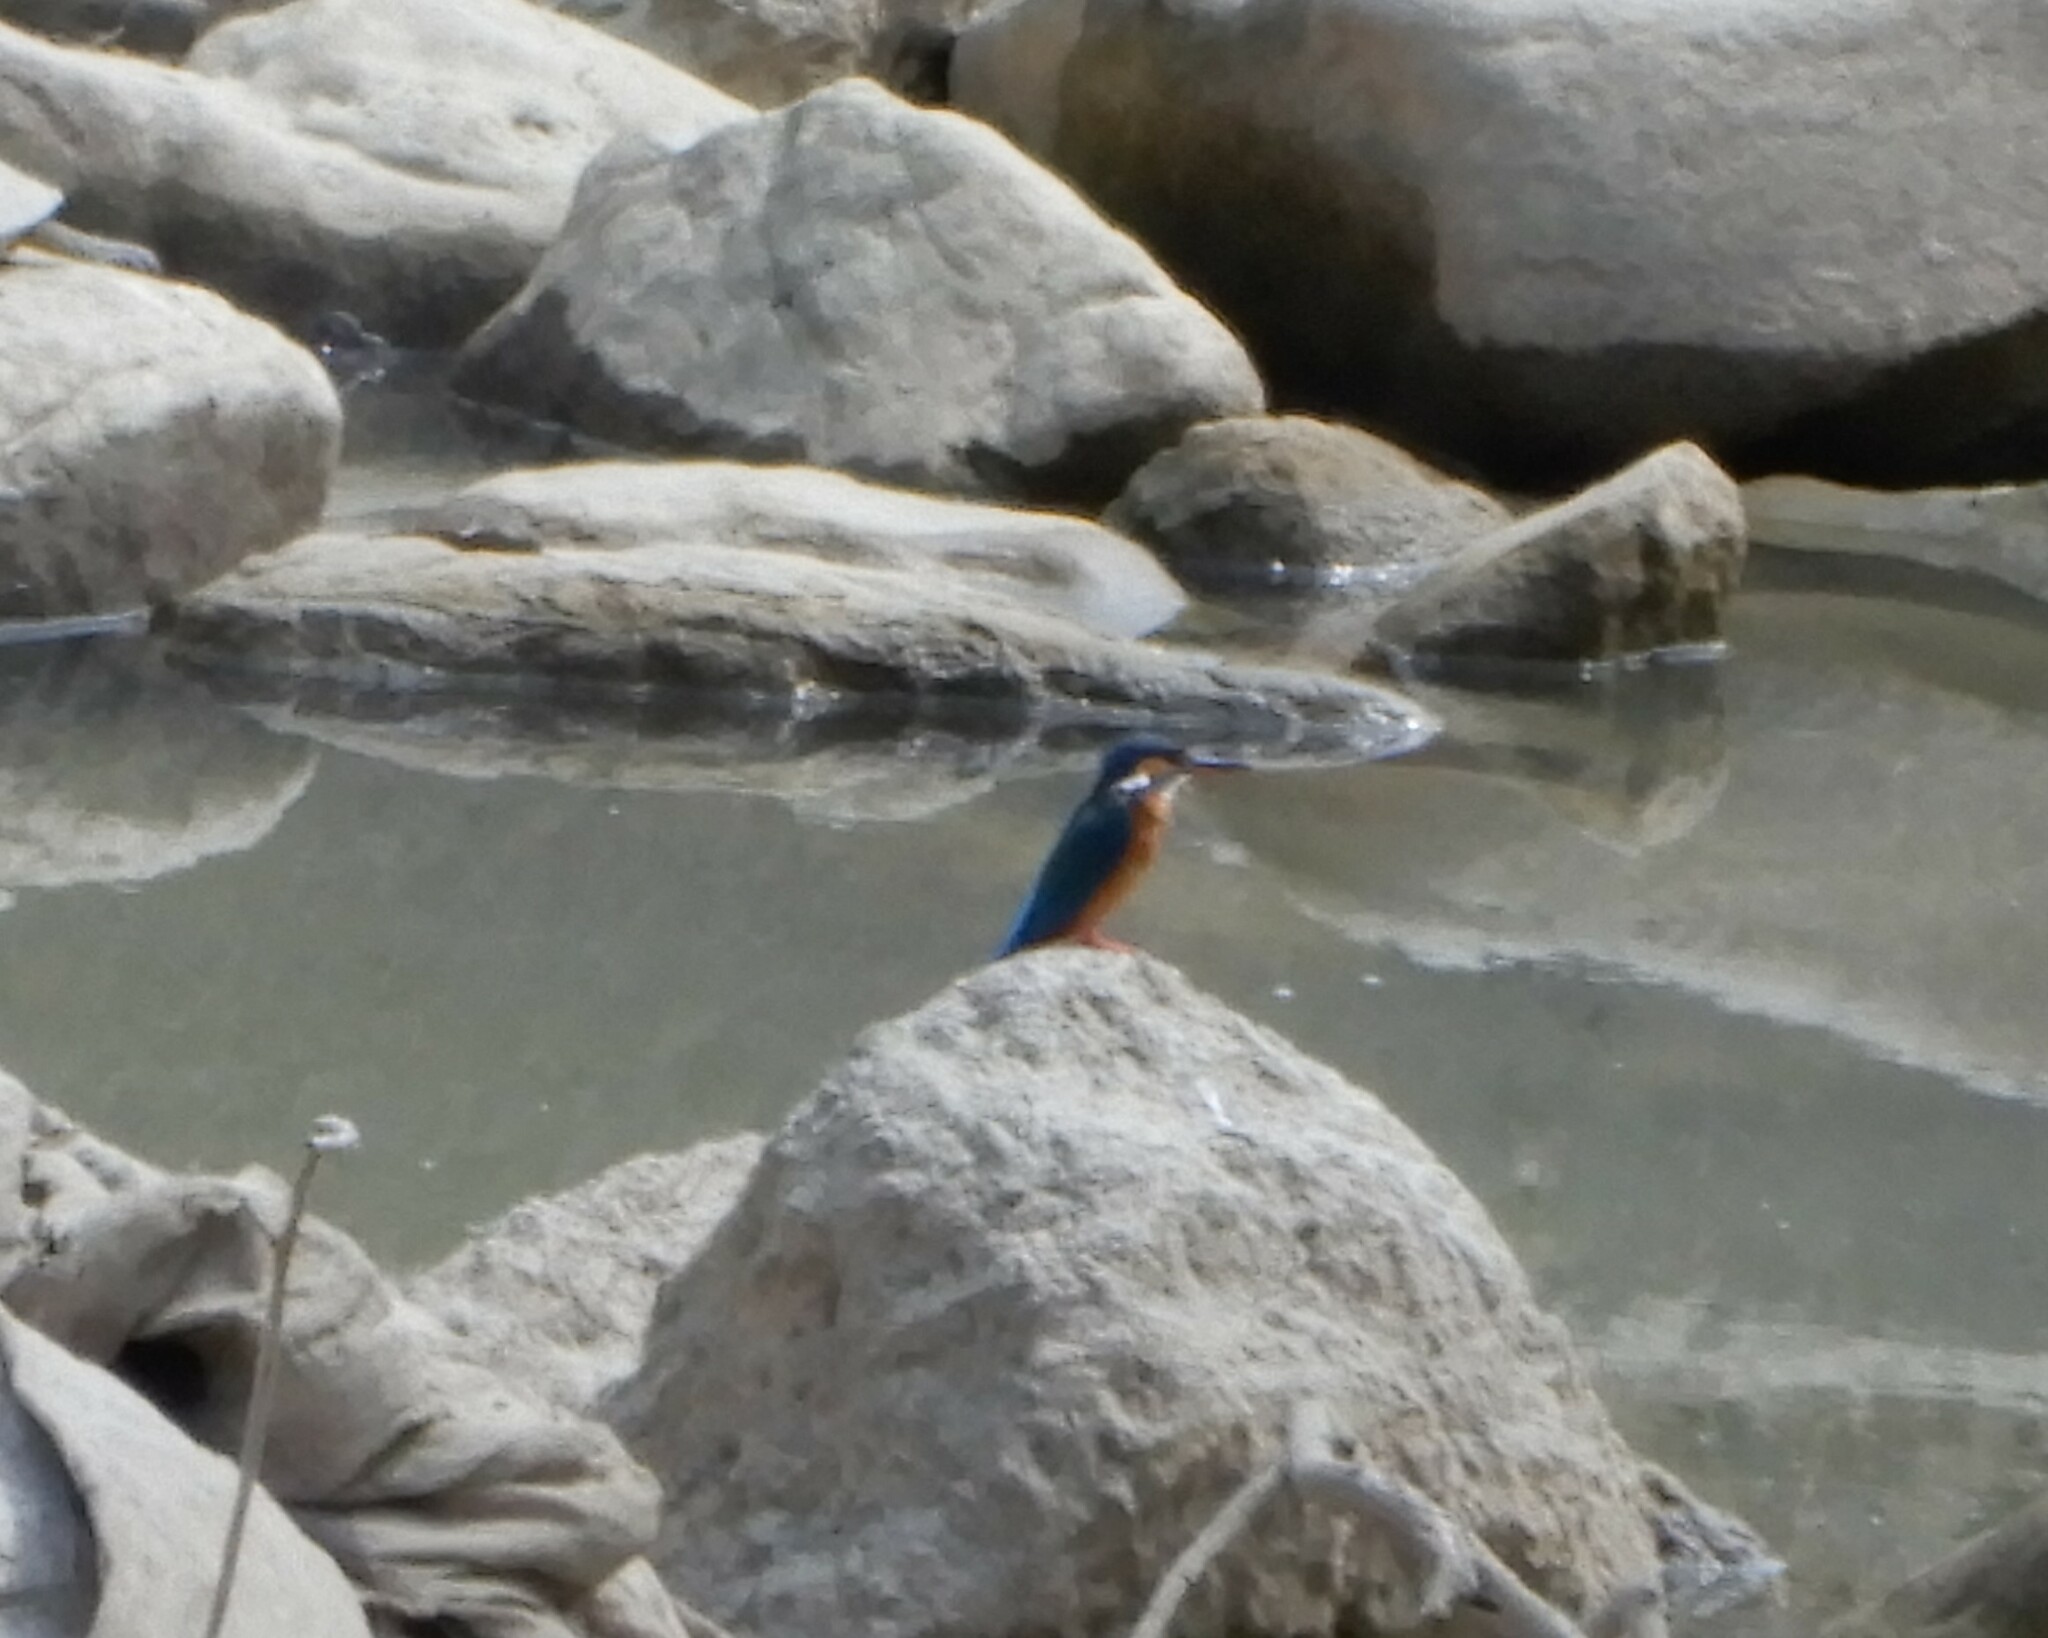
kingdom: Animalia
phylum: Chordata
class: Aves
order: Coraciiformes
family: Alcedinidae
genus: Alcedo
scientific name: Alcedo atthis
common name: Common kingfisher
